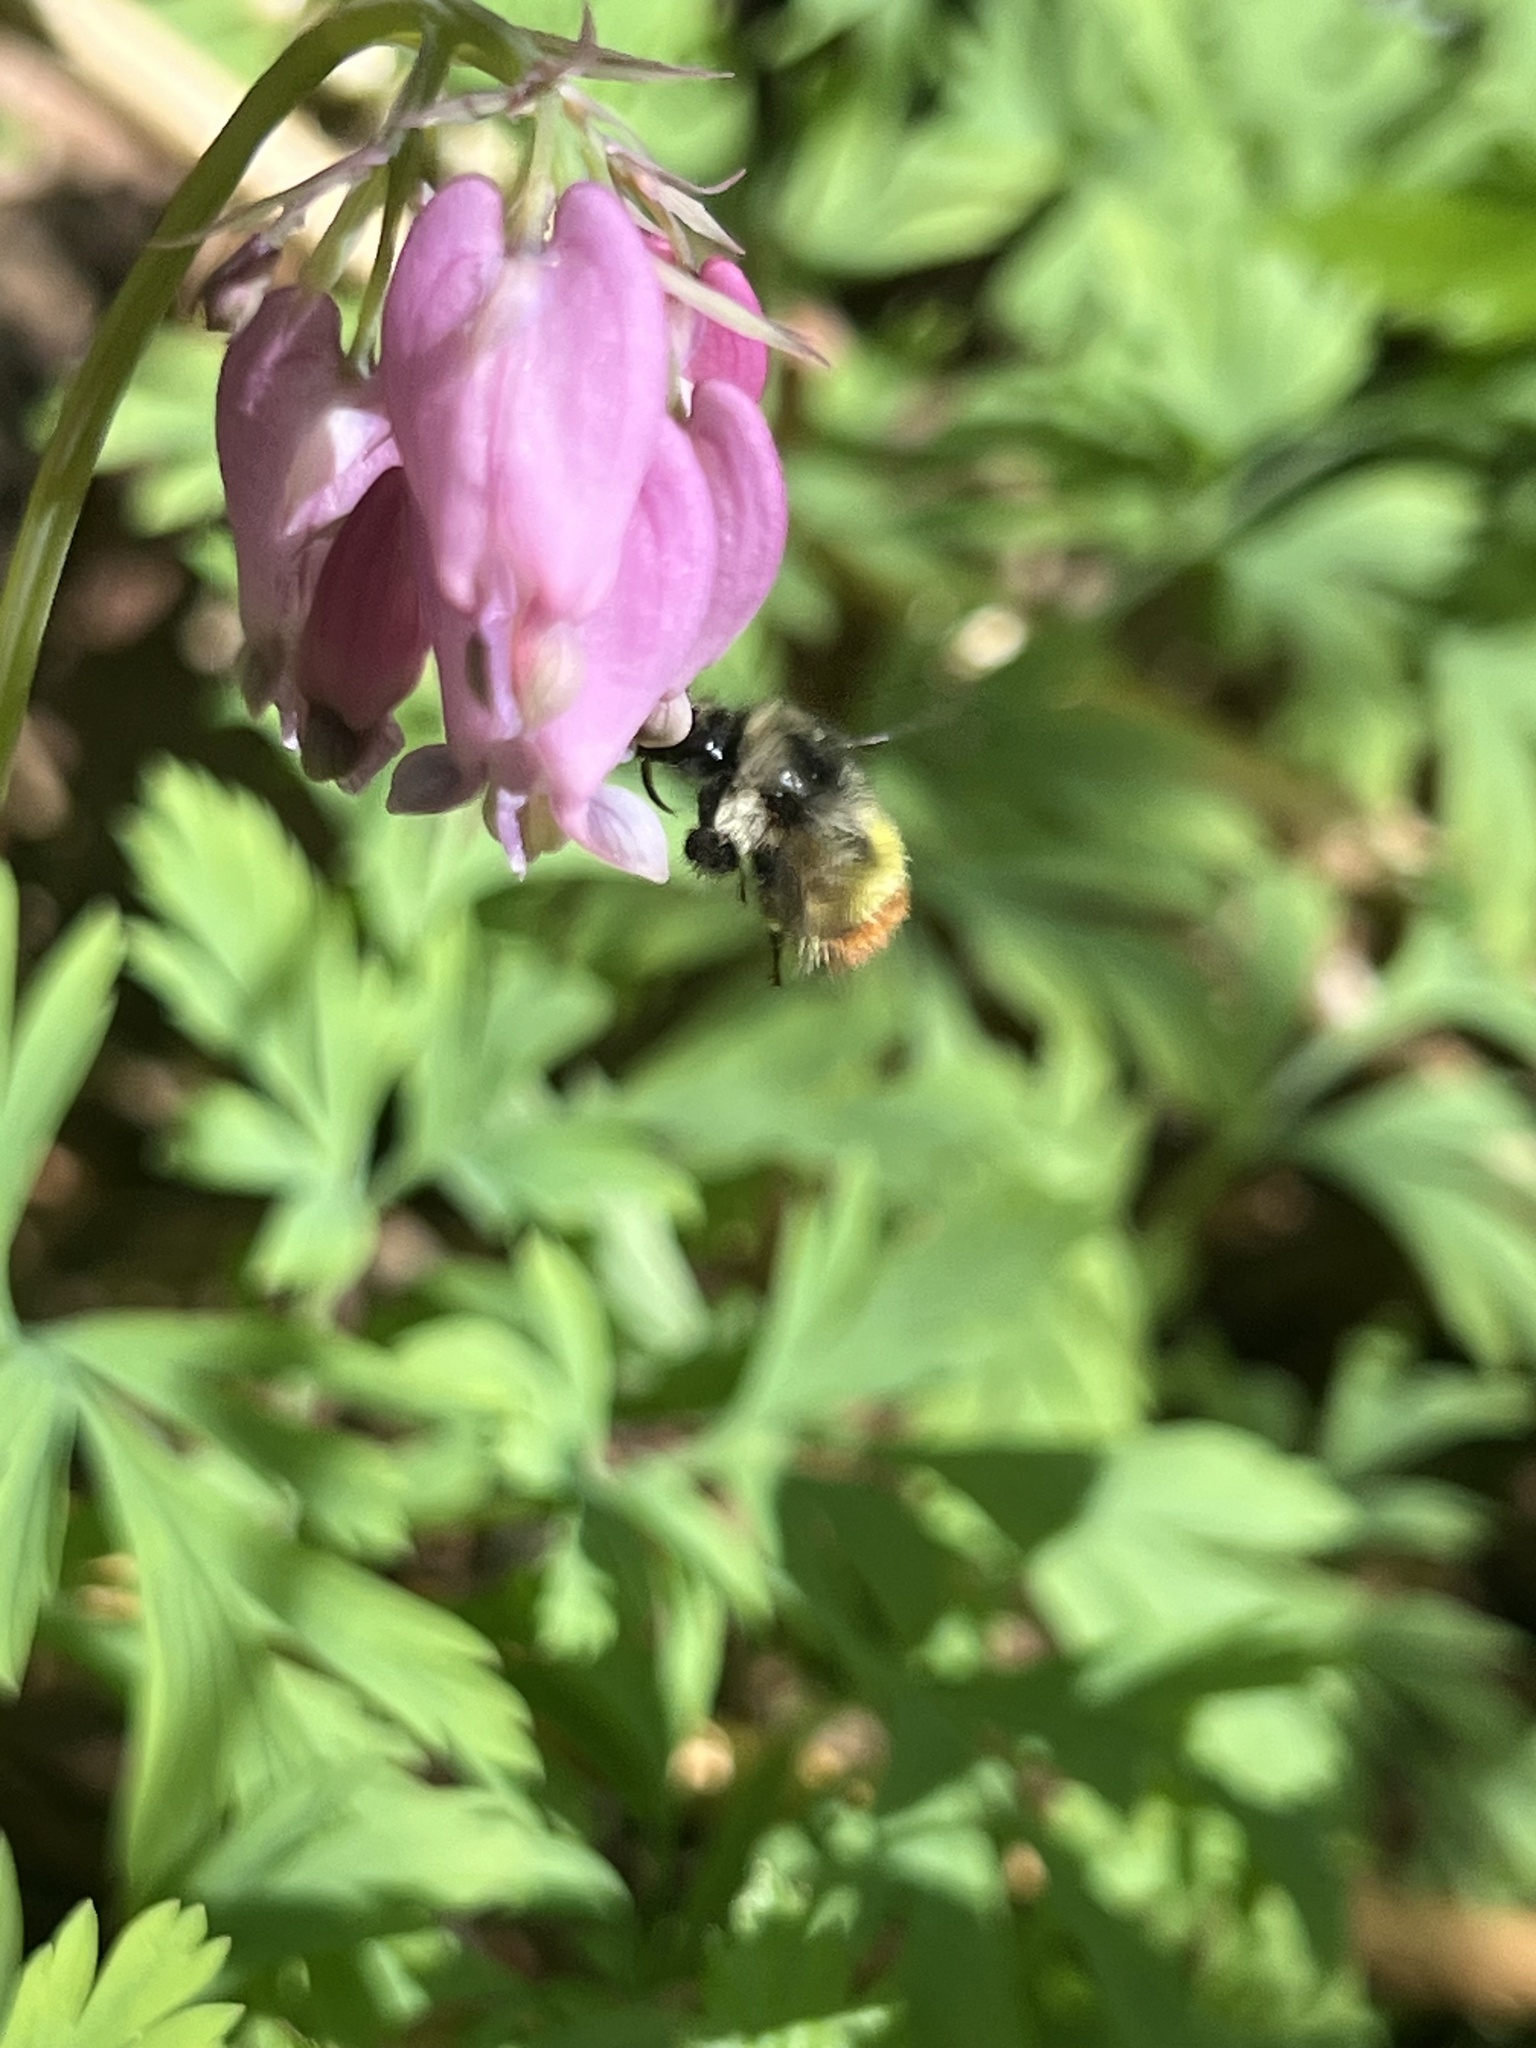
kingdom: Animalia
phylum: Arthropoda
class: Insecta
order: Hymenoptera
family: Apidae
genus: Bombus
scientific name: Bombus flavifrons
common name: Yellow head bumble bee
